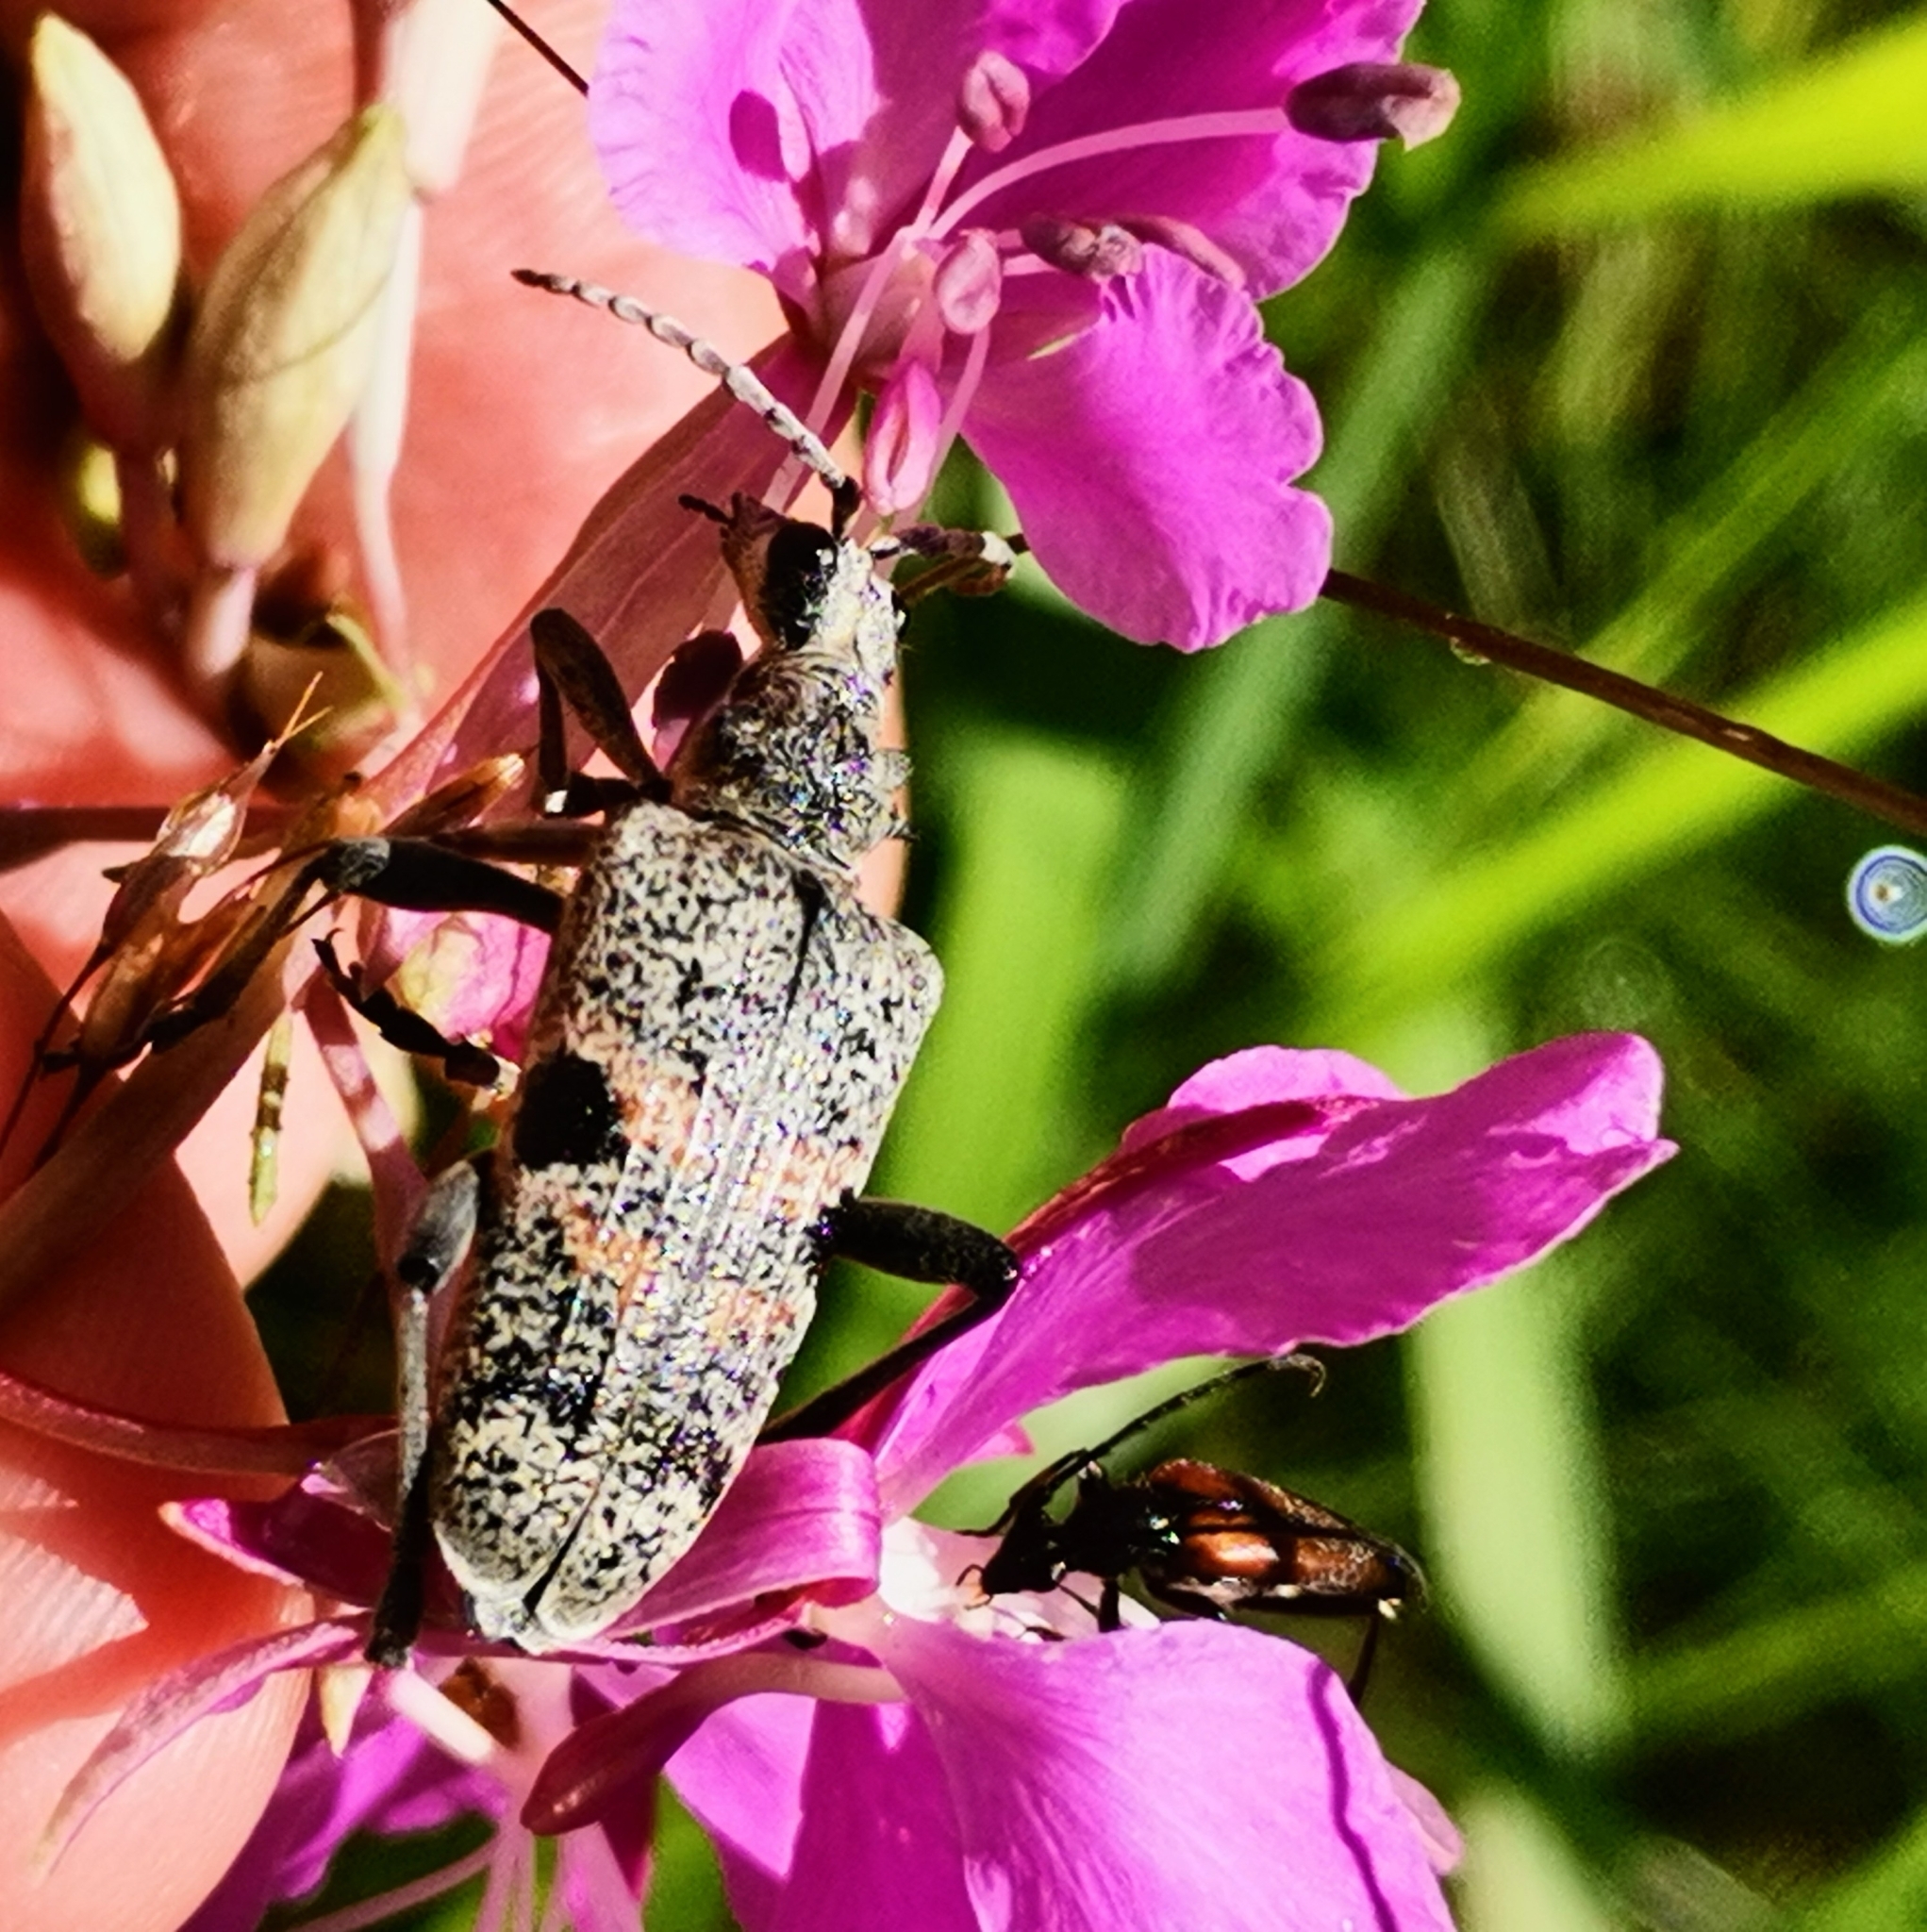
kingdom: Animalia
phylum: Arthropoda
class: Insecta
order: Coleoptera
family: Cerambycidae
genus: Rhagium
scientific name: Rhagium mordax
